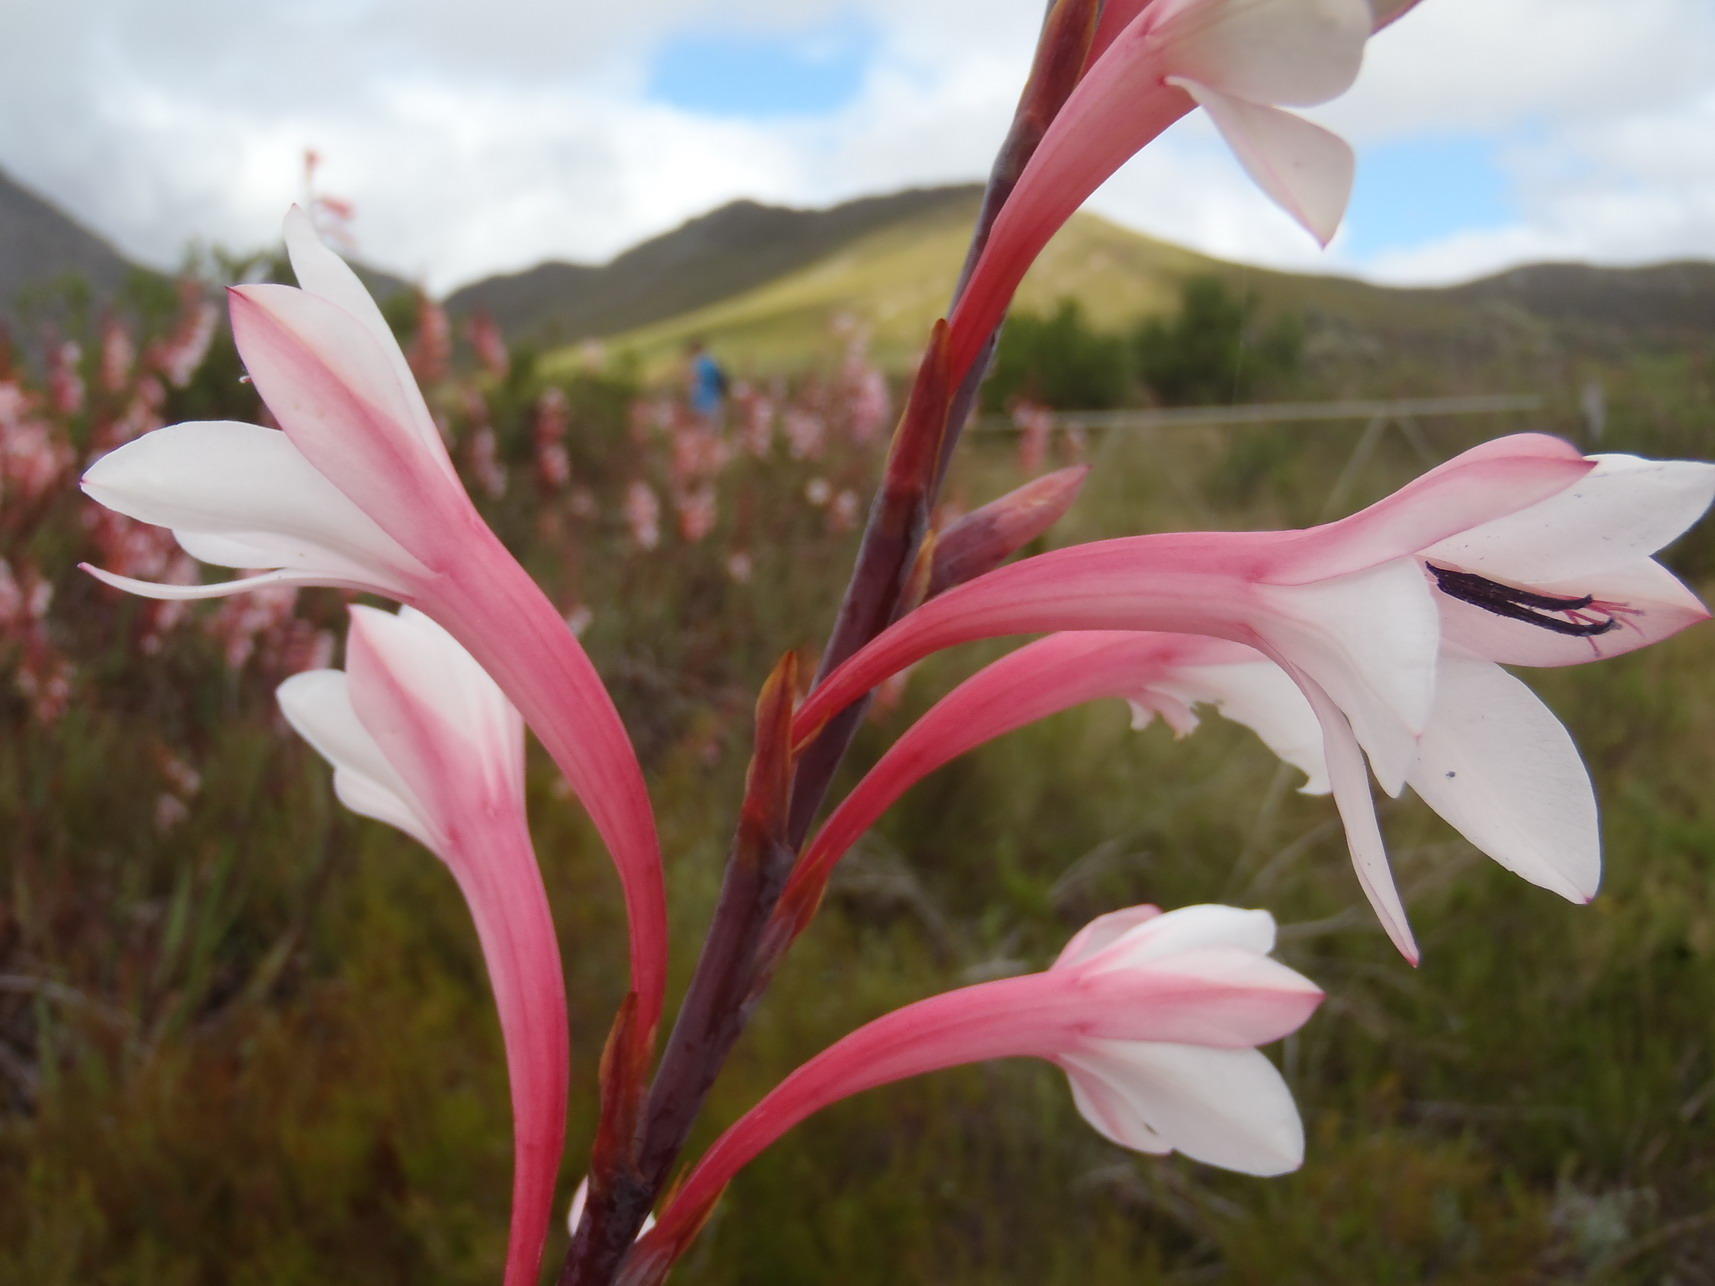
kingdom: Plantae
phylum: Tracheophyta
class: Liliopsida
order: Asparagales
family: Iridaceae
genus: Watsonia
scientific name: Watsonia fourcadei
